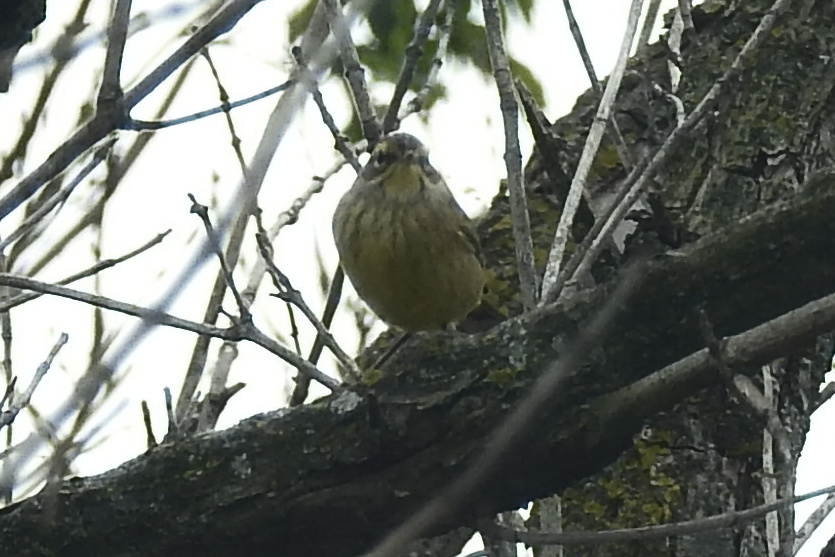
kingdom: Animalia
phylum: Chordata
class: Aves
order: Passeriformes
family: Parulidae
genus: Setophaga
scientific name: Setophaga palmarum
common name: Palm warbler
